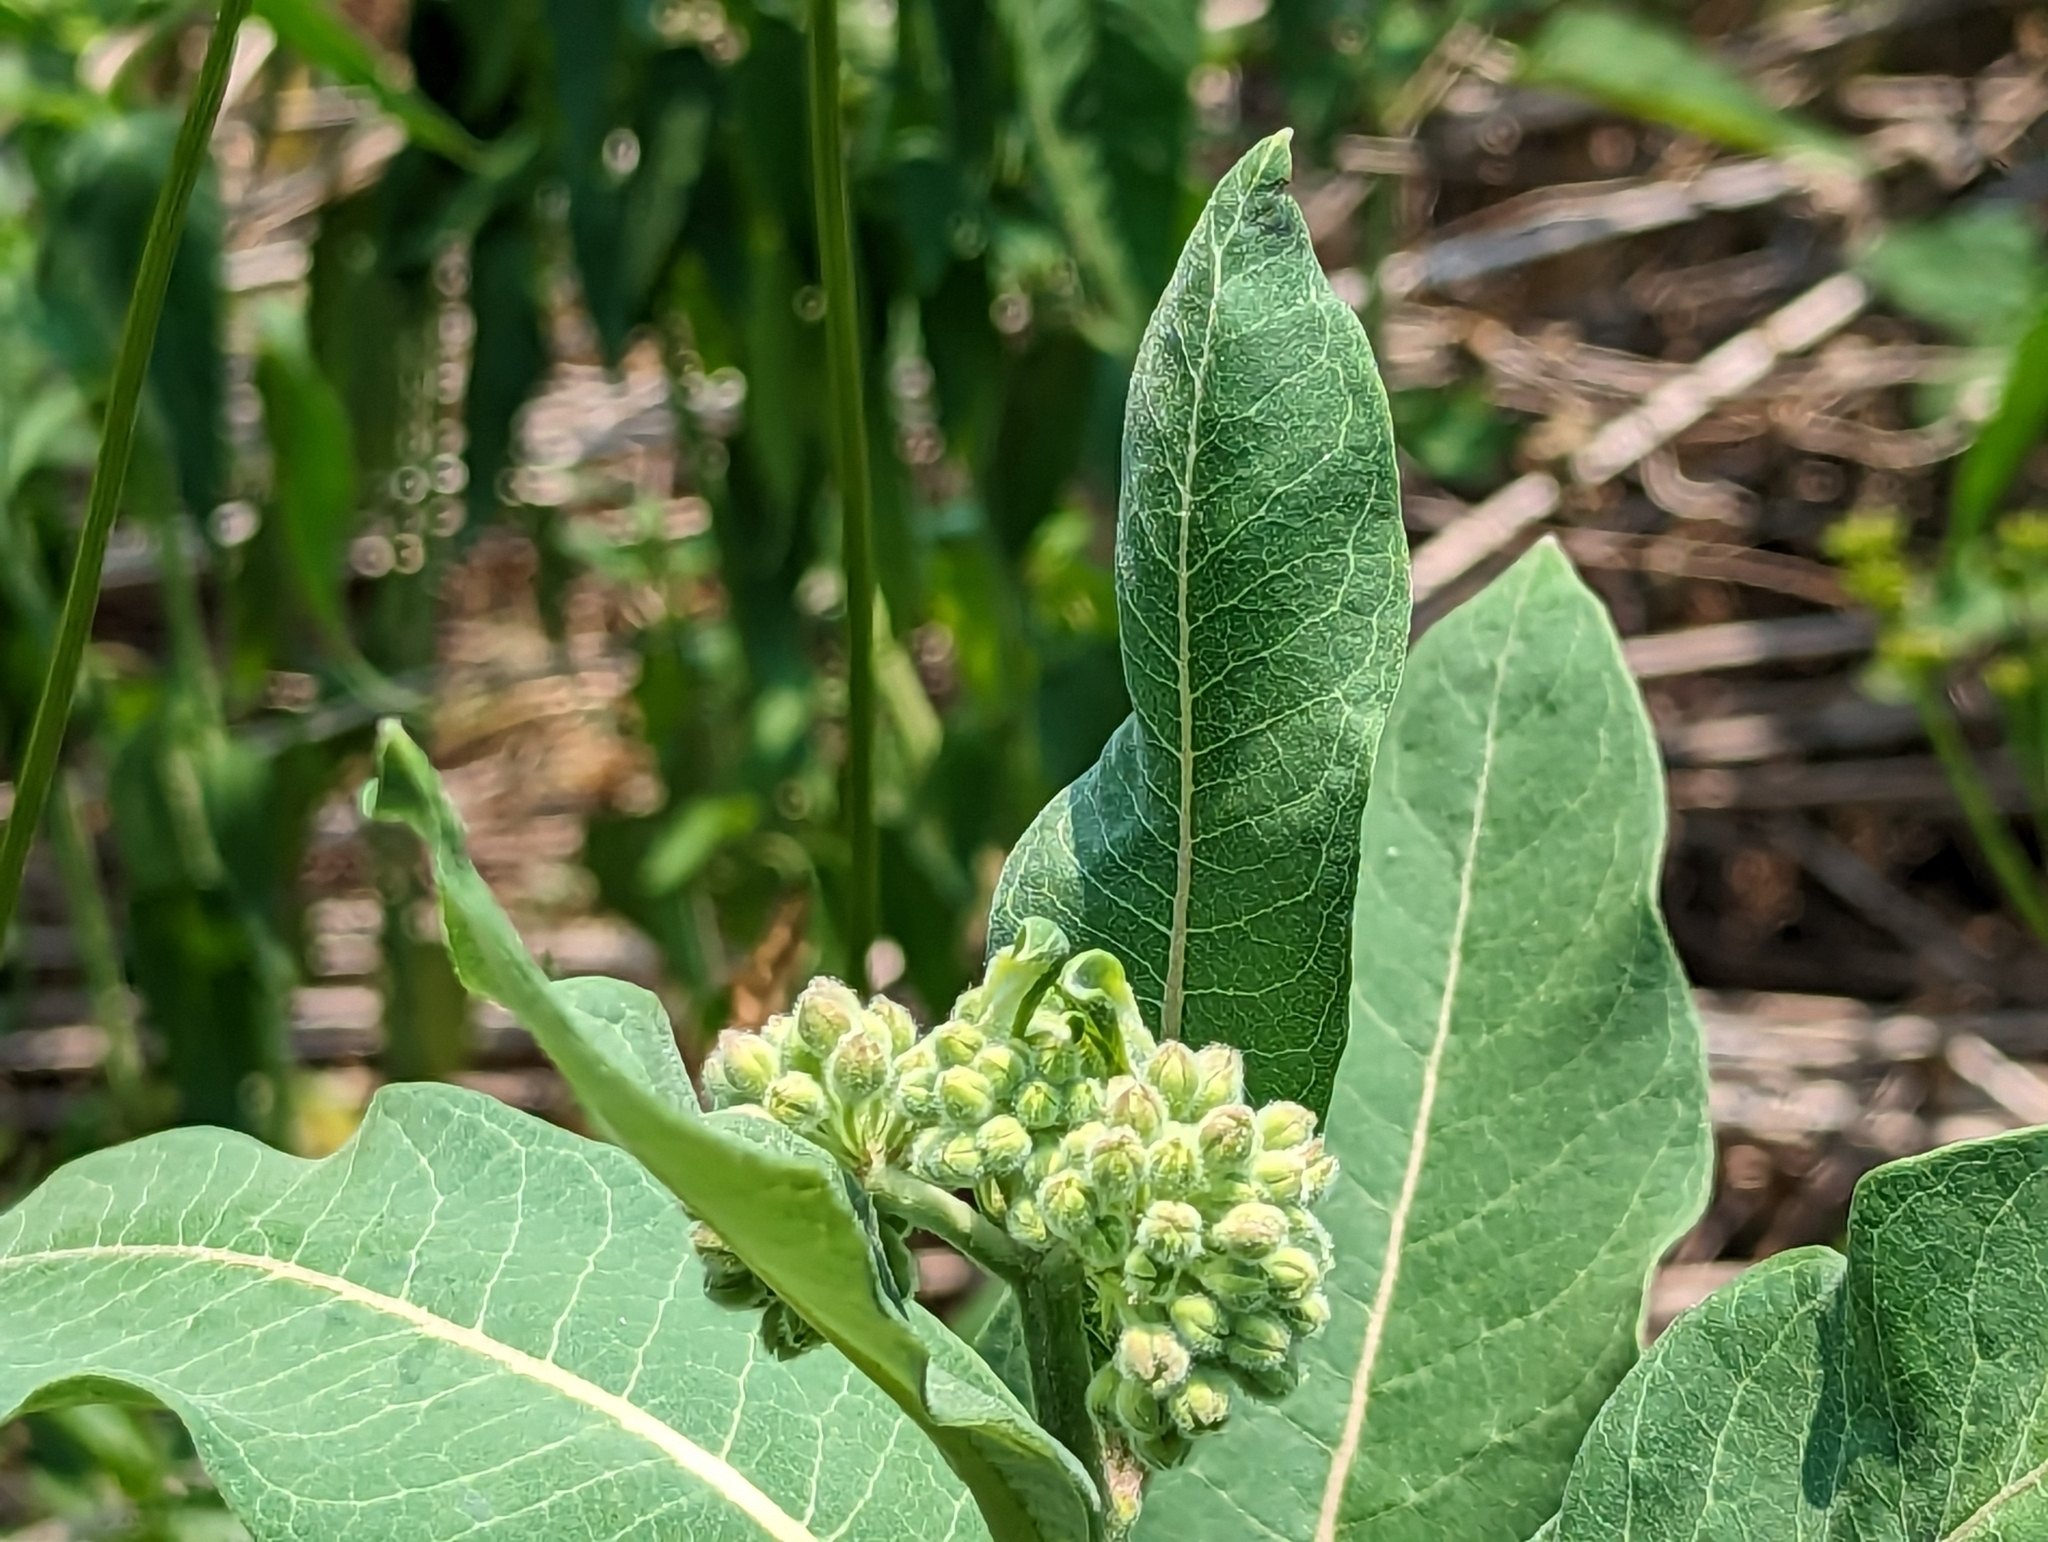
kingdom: Plantae
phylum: Tracheophyta
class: Magnoliopsida
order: Gentianales
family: Apocynaceae
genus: Asclepias
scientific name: Asclepias syriaca
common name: Common milkweed
